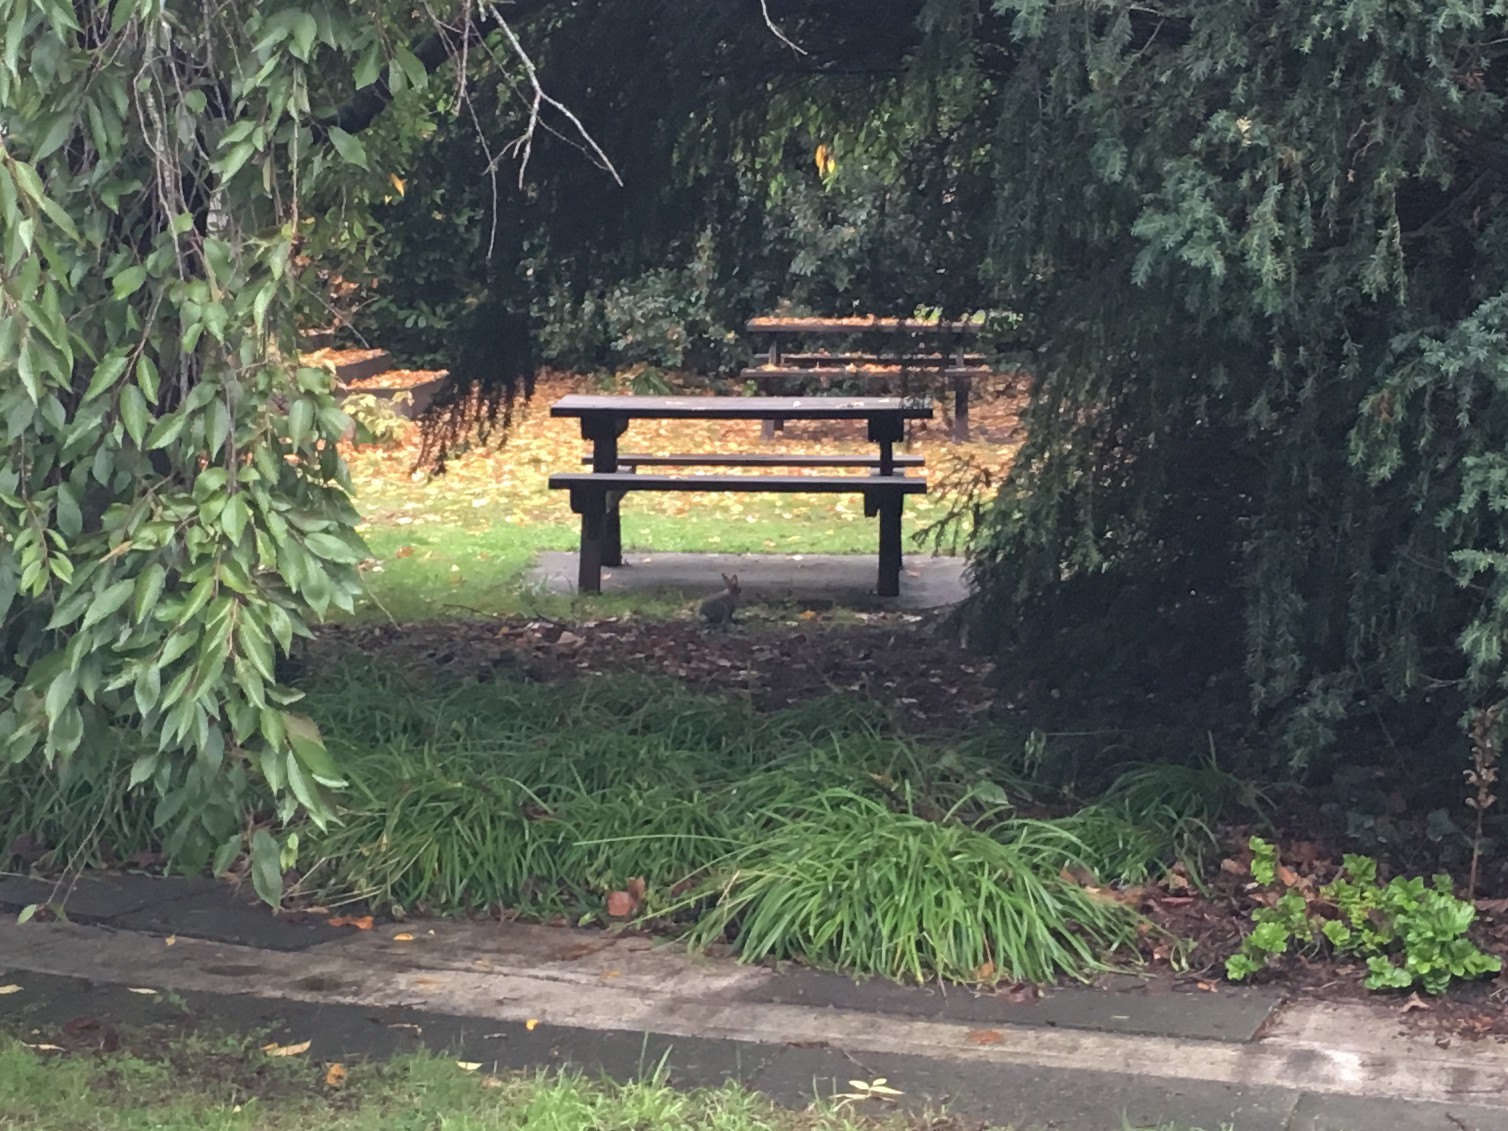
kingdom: Animalia
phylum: Chordata
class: Mammalia
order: Lagomorpha
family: Leporidae
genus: Oryctolagus
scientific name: Oryctolagus cuniculus
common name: European rabbit
